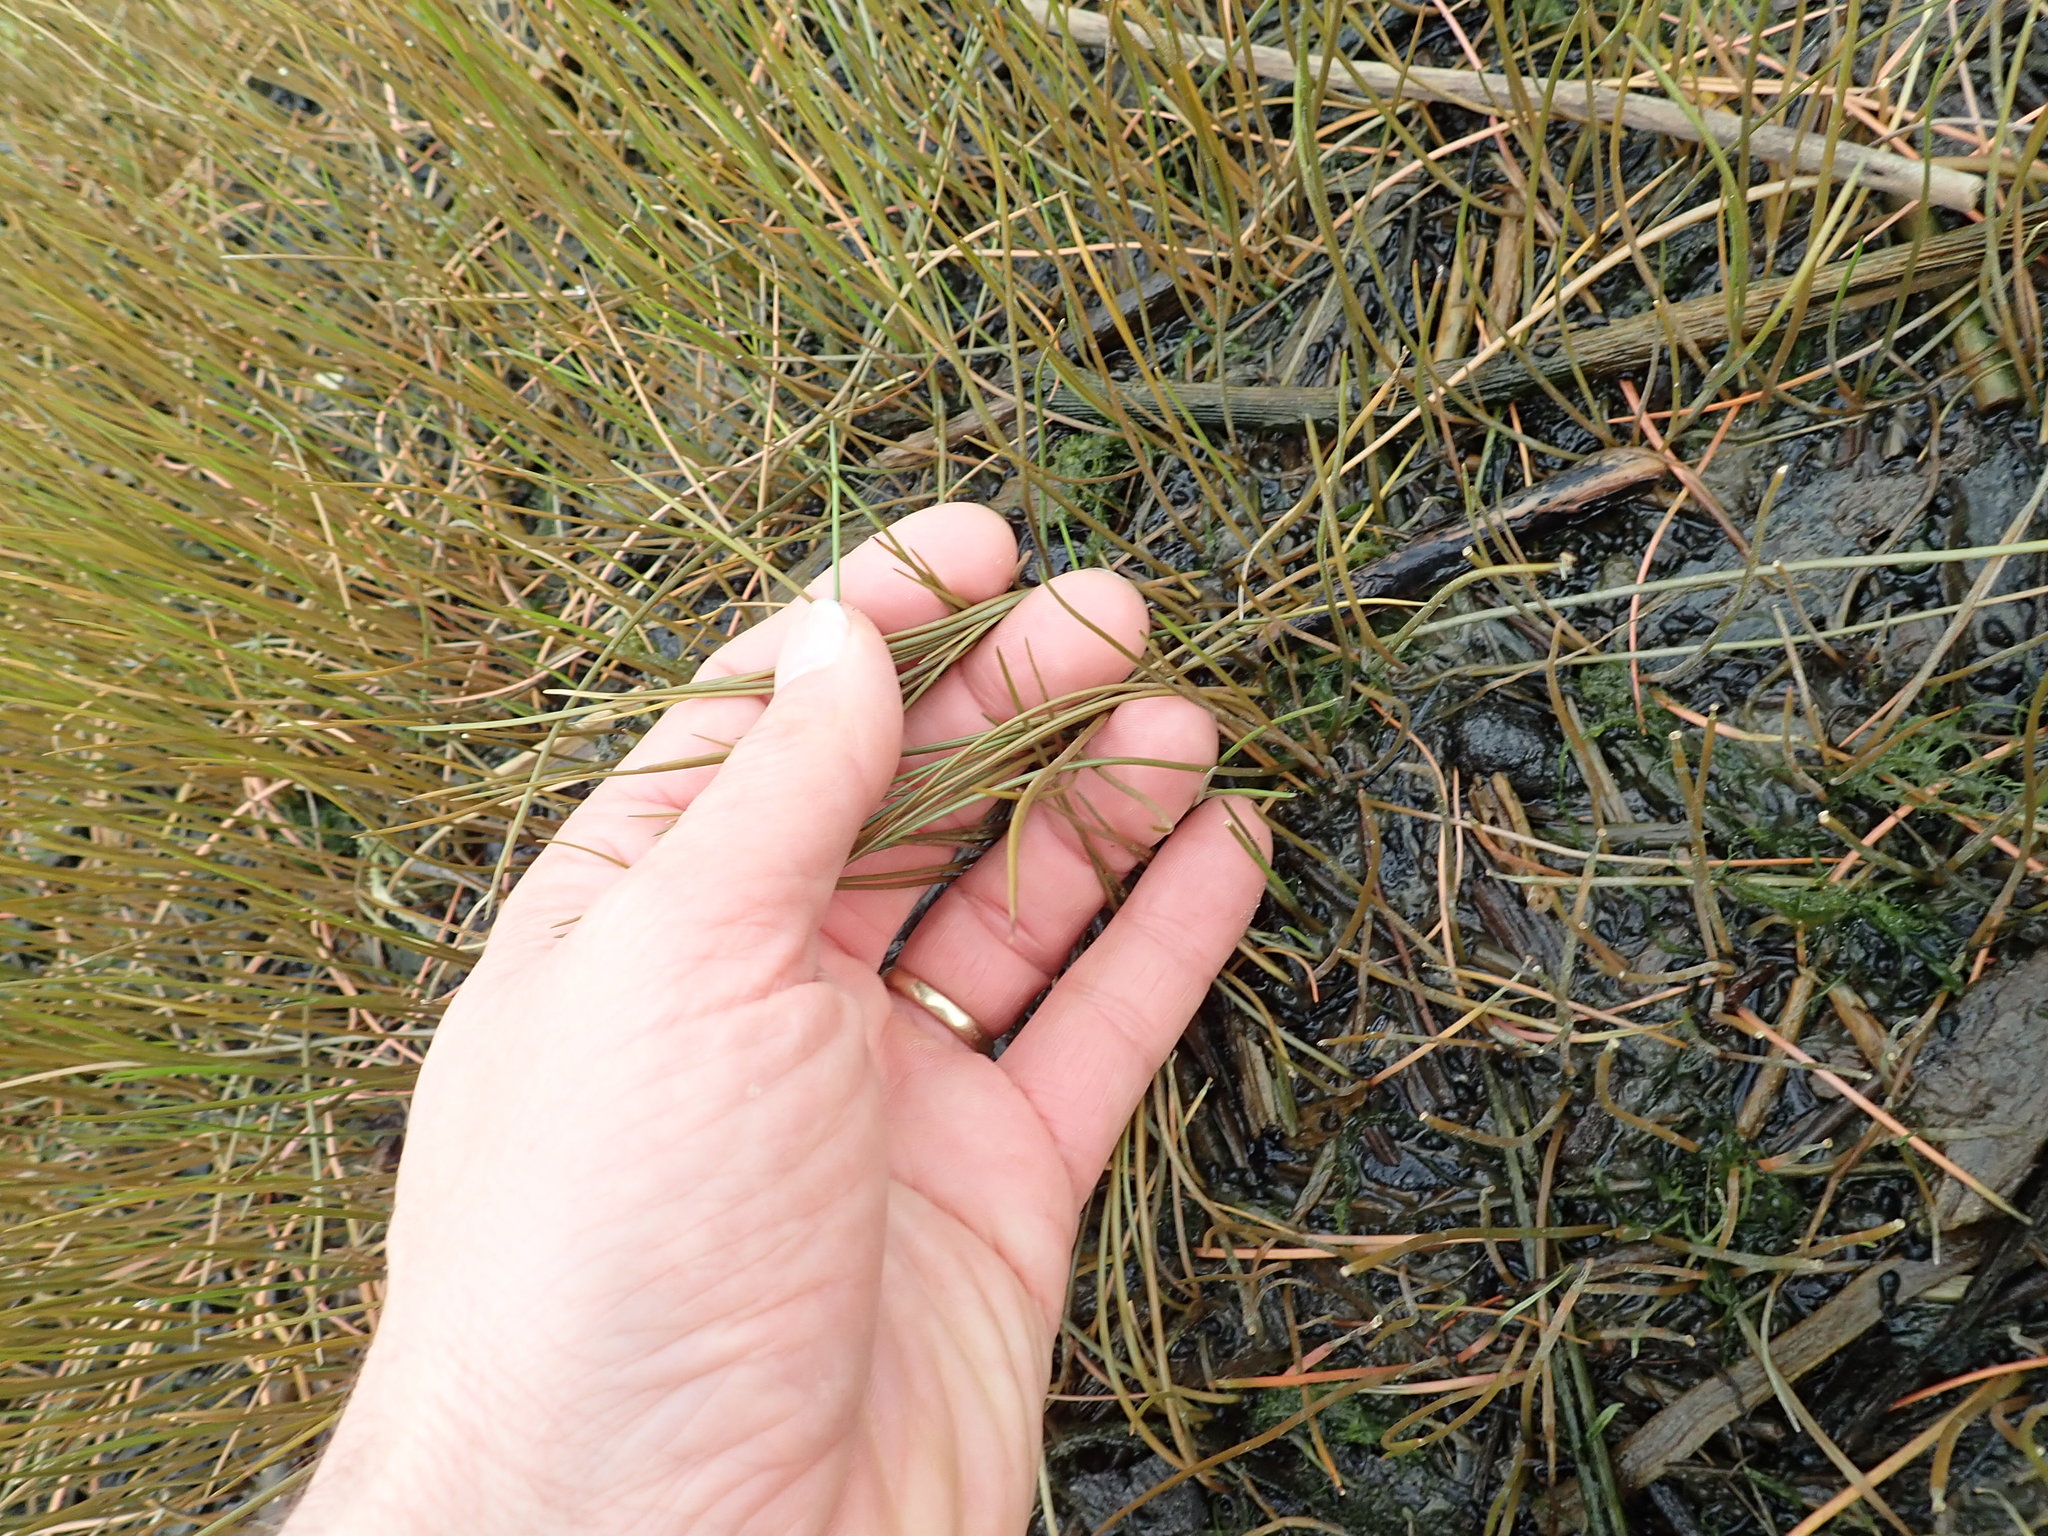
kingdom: Plantae
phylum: Tracheophyta
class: Liliopsida
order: Alismatales
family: Juncaginaceae
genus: Triglochin
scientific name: Triglochin striata
